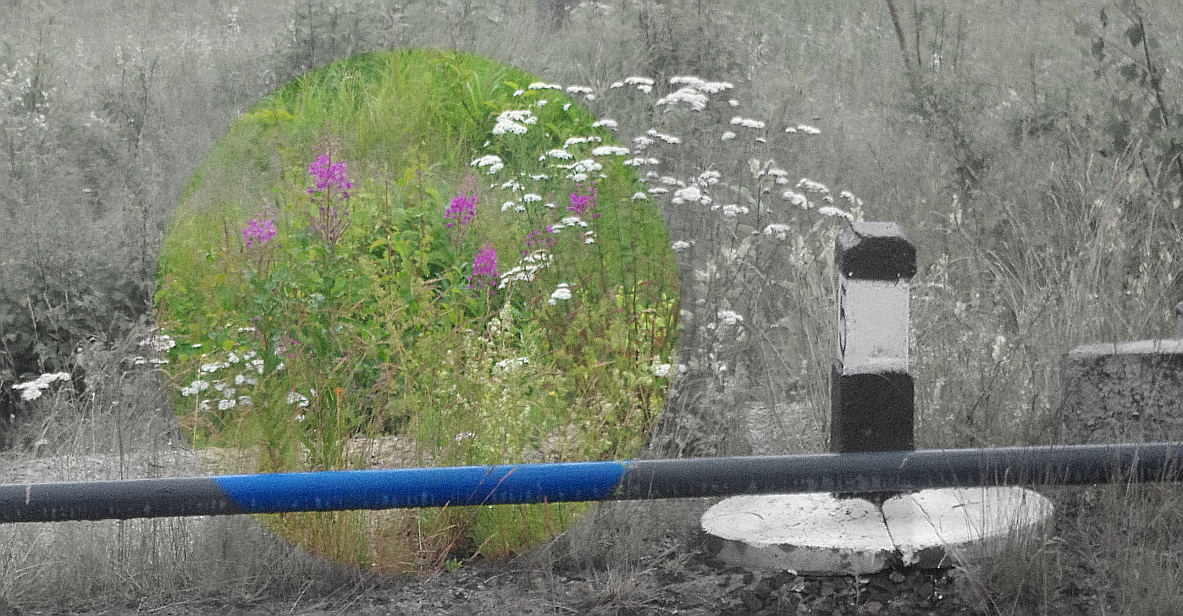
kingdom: Plantae
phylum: Tracheophyta
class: Magnoliopsida
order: Myrtales
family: Onagraceae
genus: Chamaenerion
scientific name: Chamaenerion angustifolium
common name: Fireweed
